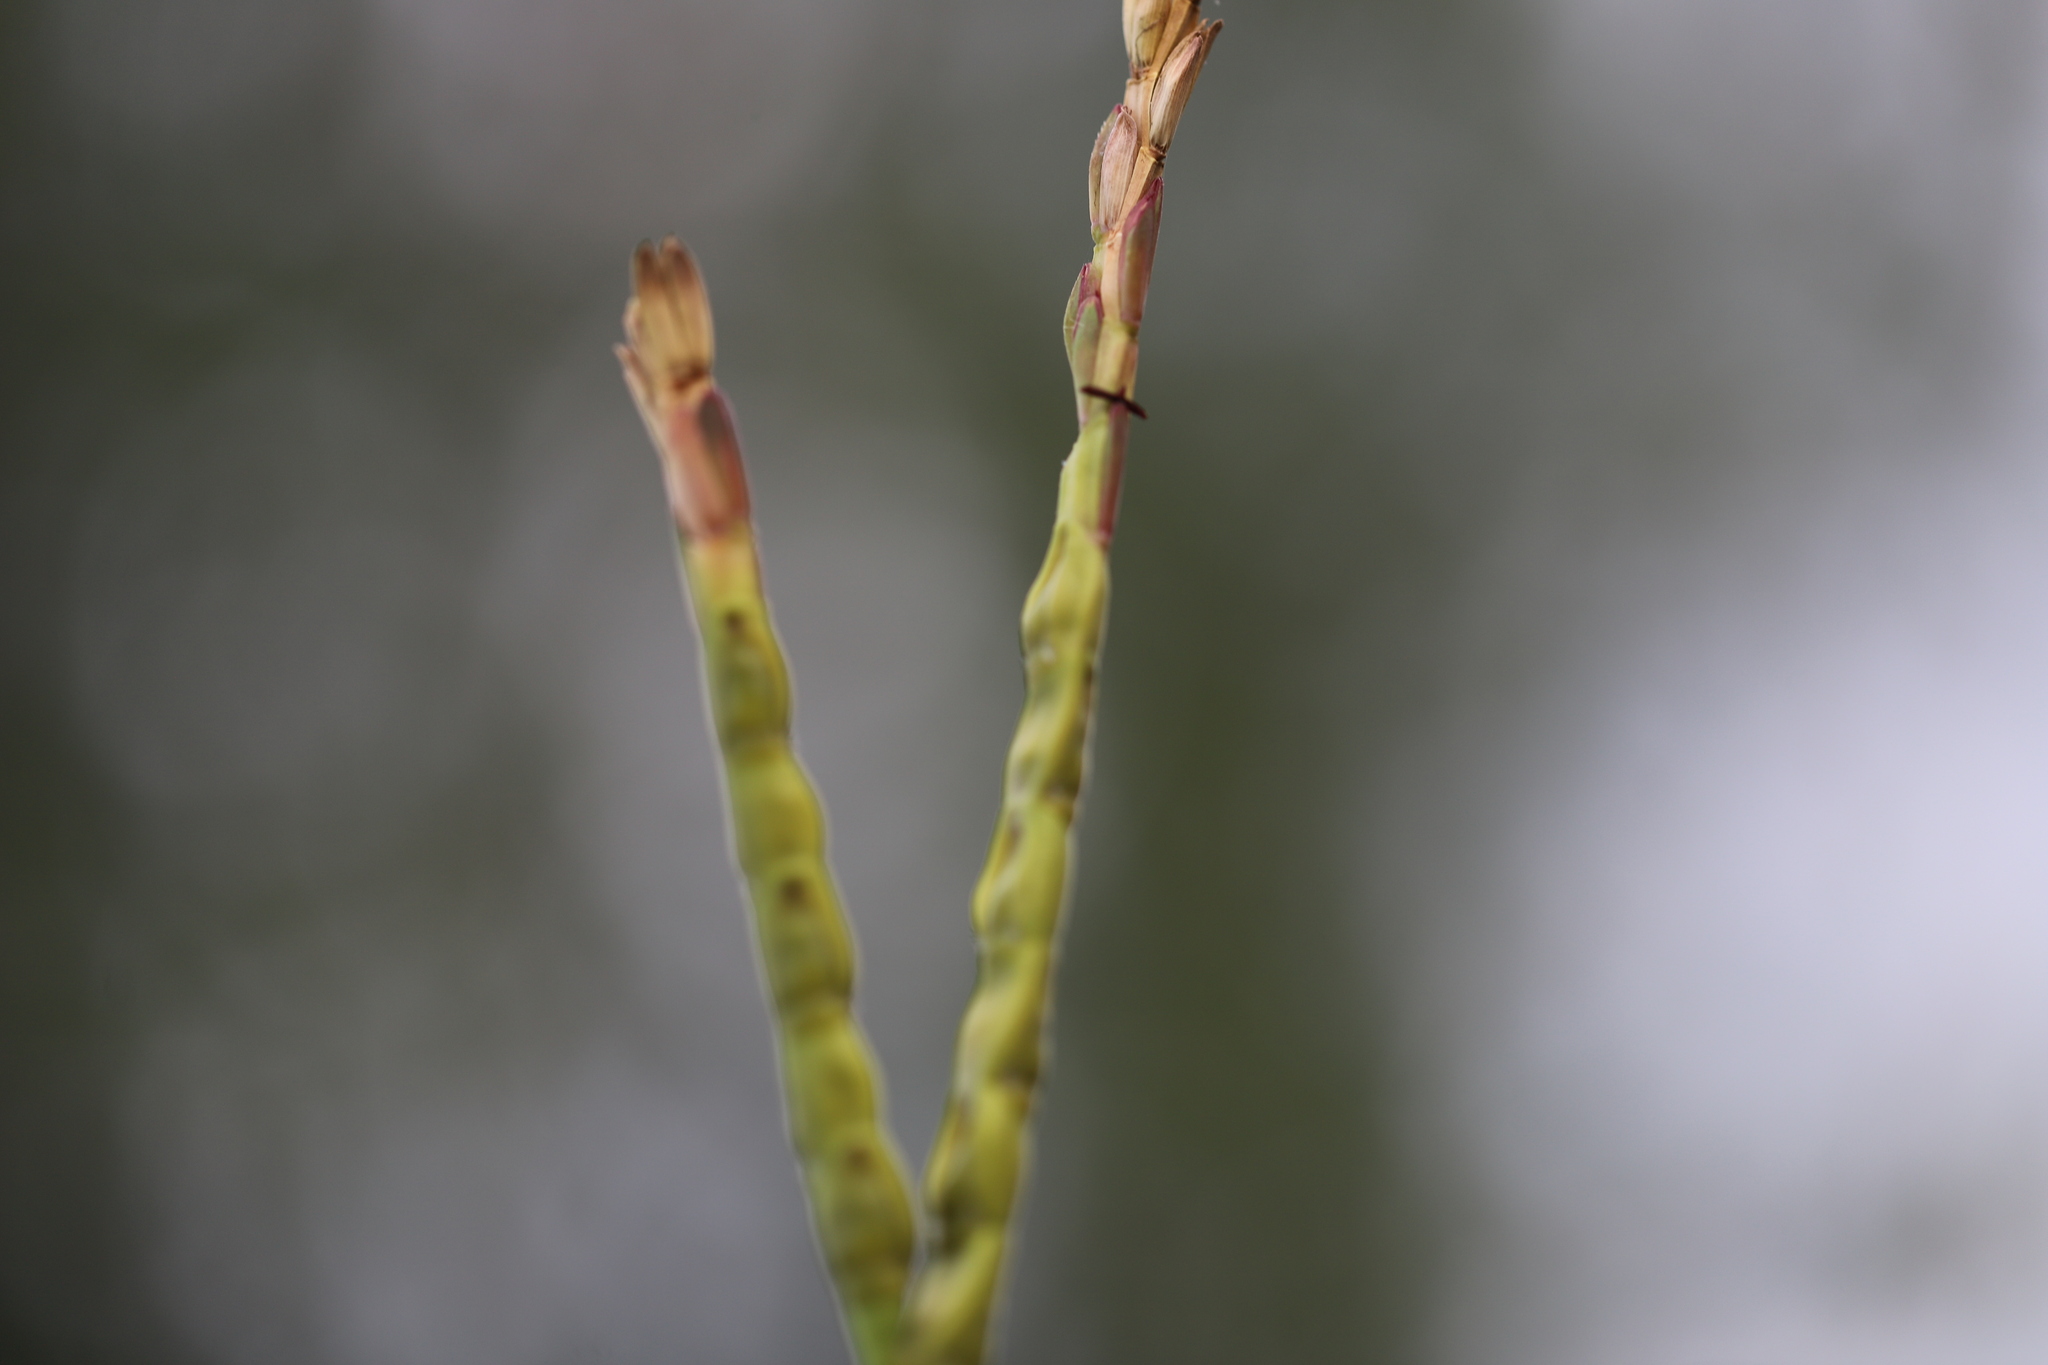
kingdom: Plantae
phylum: Tracheophyta
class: Liliopsida
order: Poales
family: Poaceae
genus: Tripsacum
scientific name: Tripsacum dactyloides
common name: Buffalo-grass
